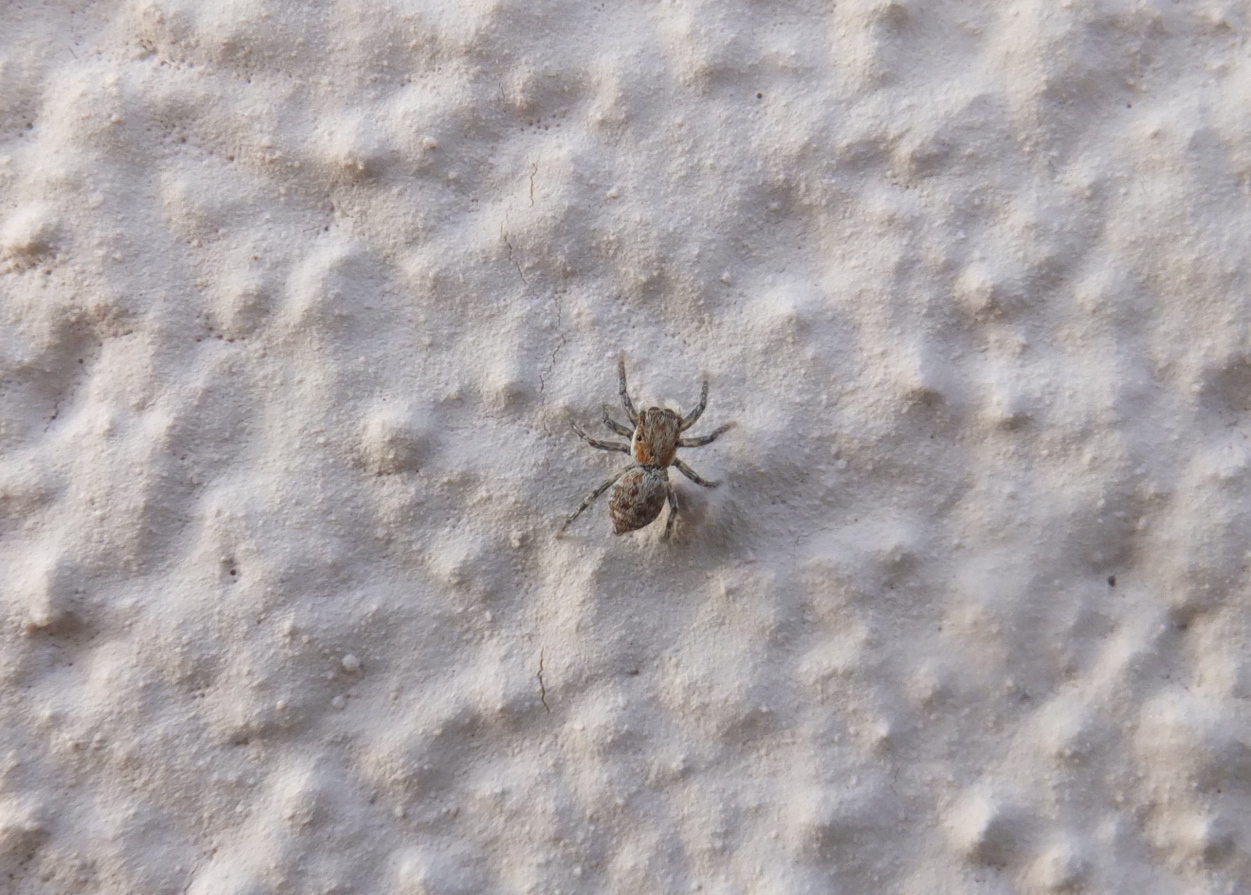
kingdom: Animalia
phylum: Arthropoda
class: Arachnida
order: Araneae
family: Salticidae
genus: Menemerus
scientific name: Menemerus semilimbatus
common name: Jumping spider
